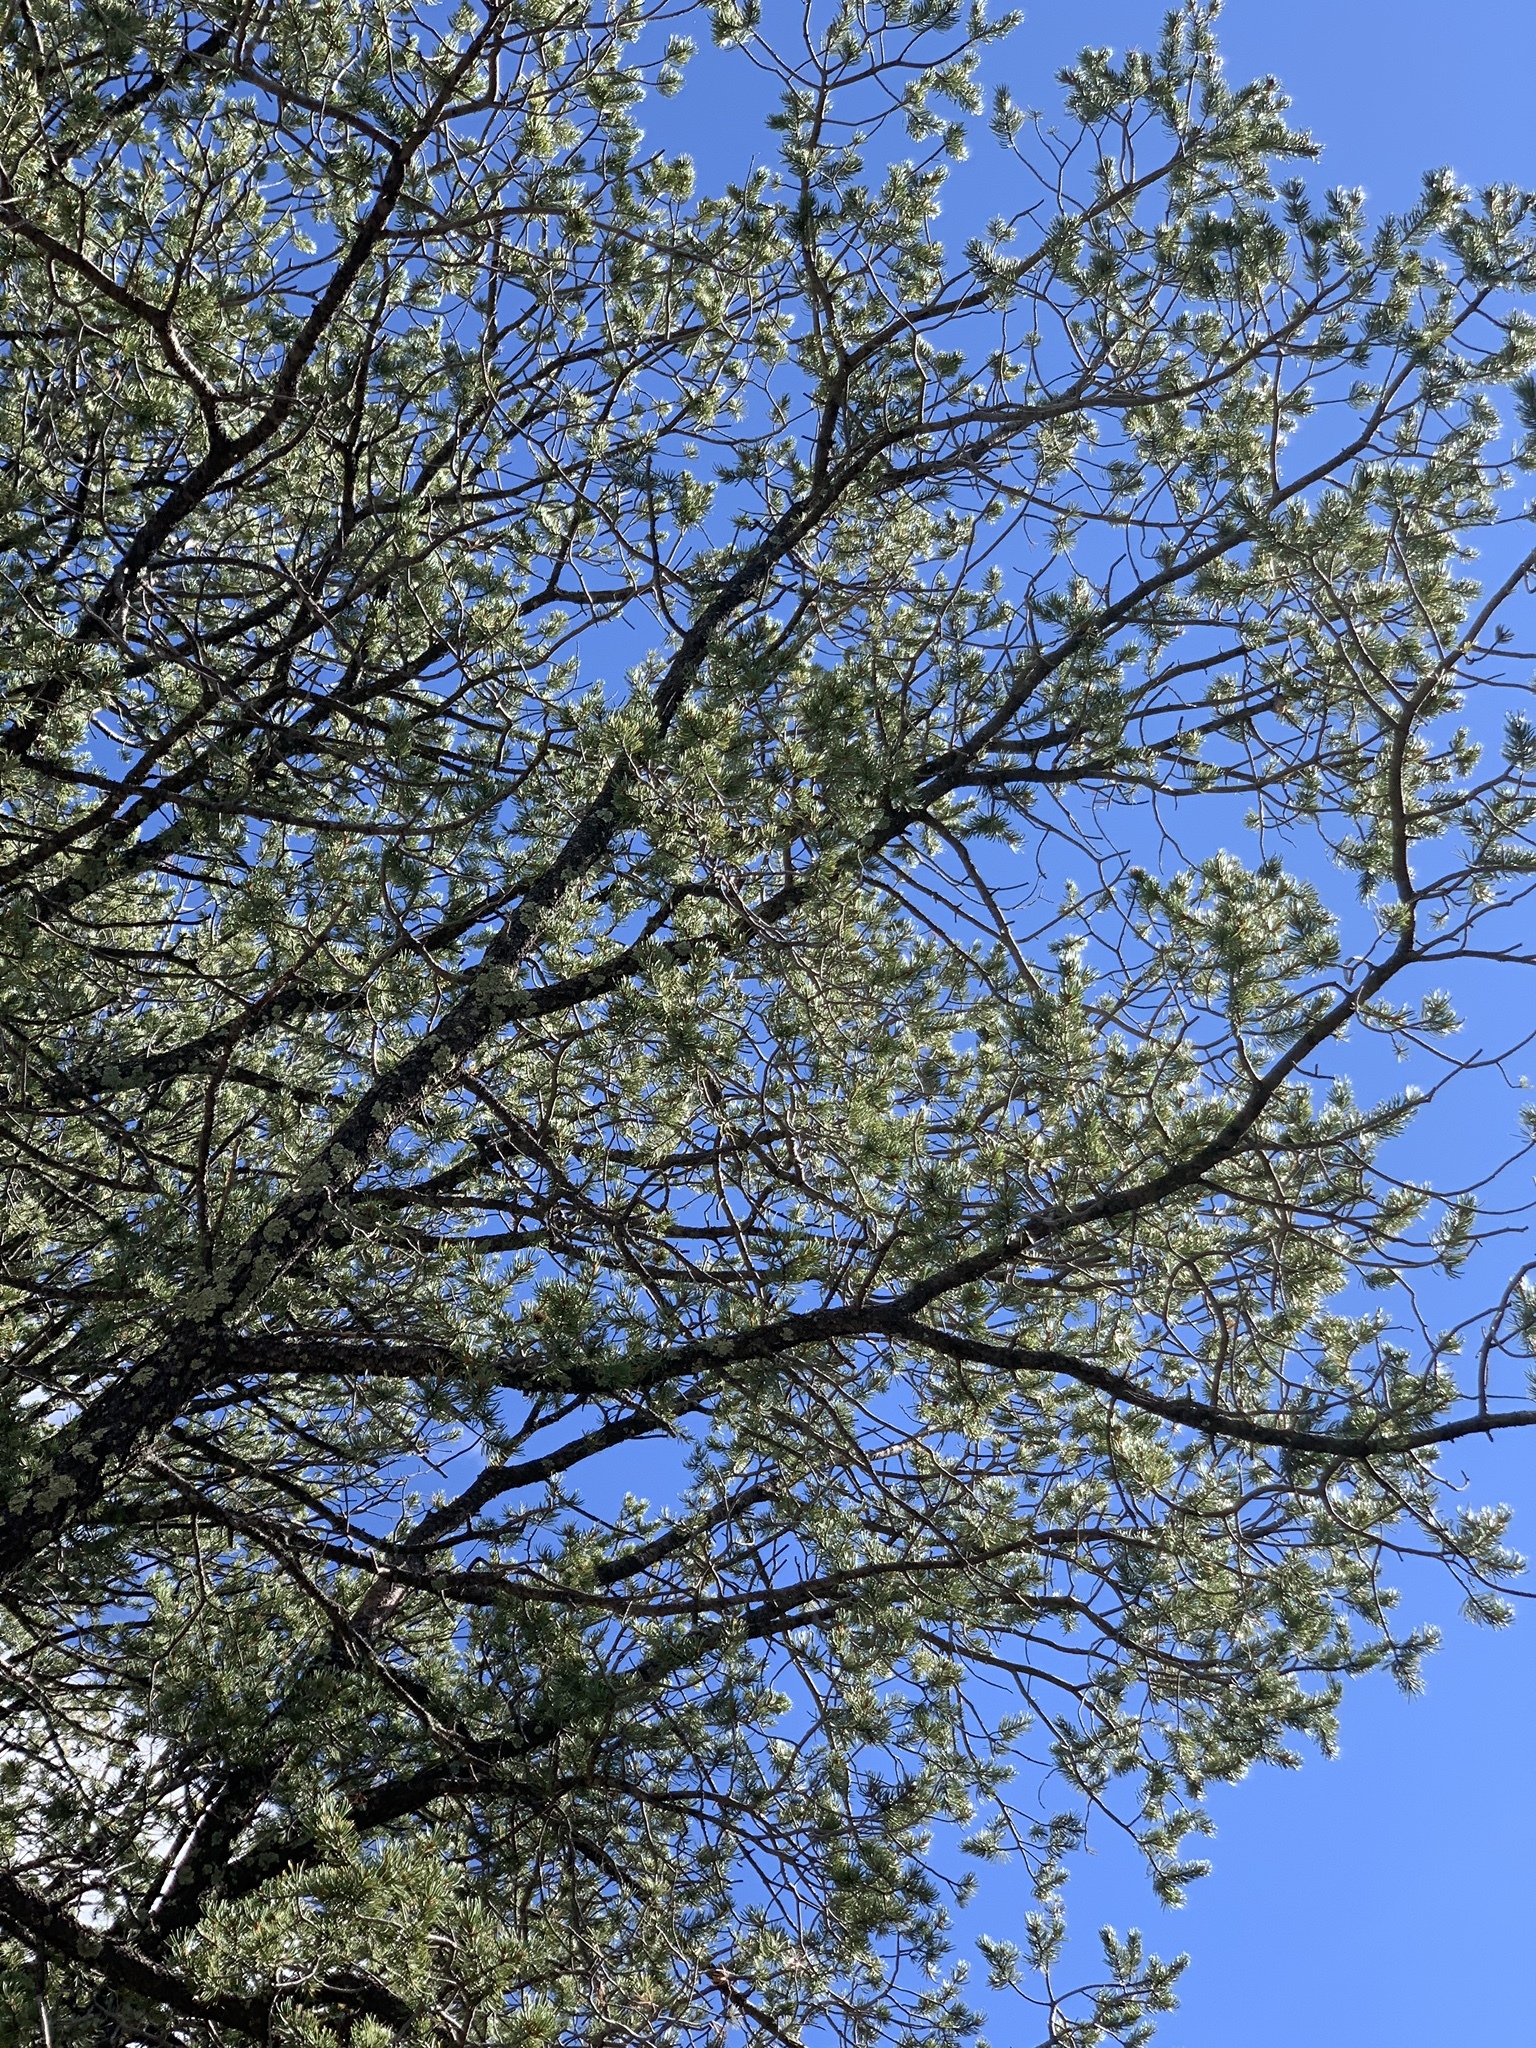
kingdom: Plantae
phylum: Tracheophyta
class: Pinopsida
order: Pinales
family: Pinaceae
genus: Pinus
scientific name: Pinus edulis
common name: Colorado pinyon
